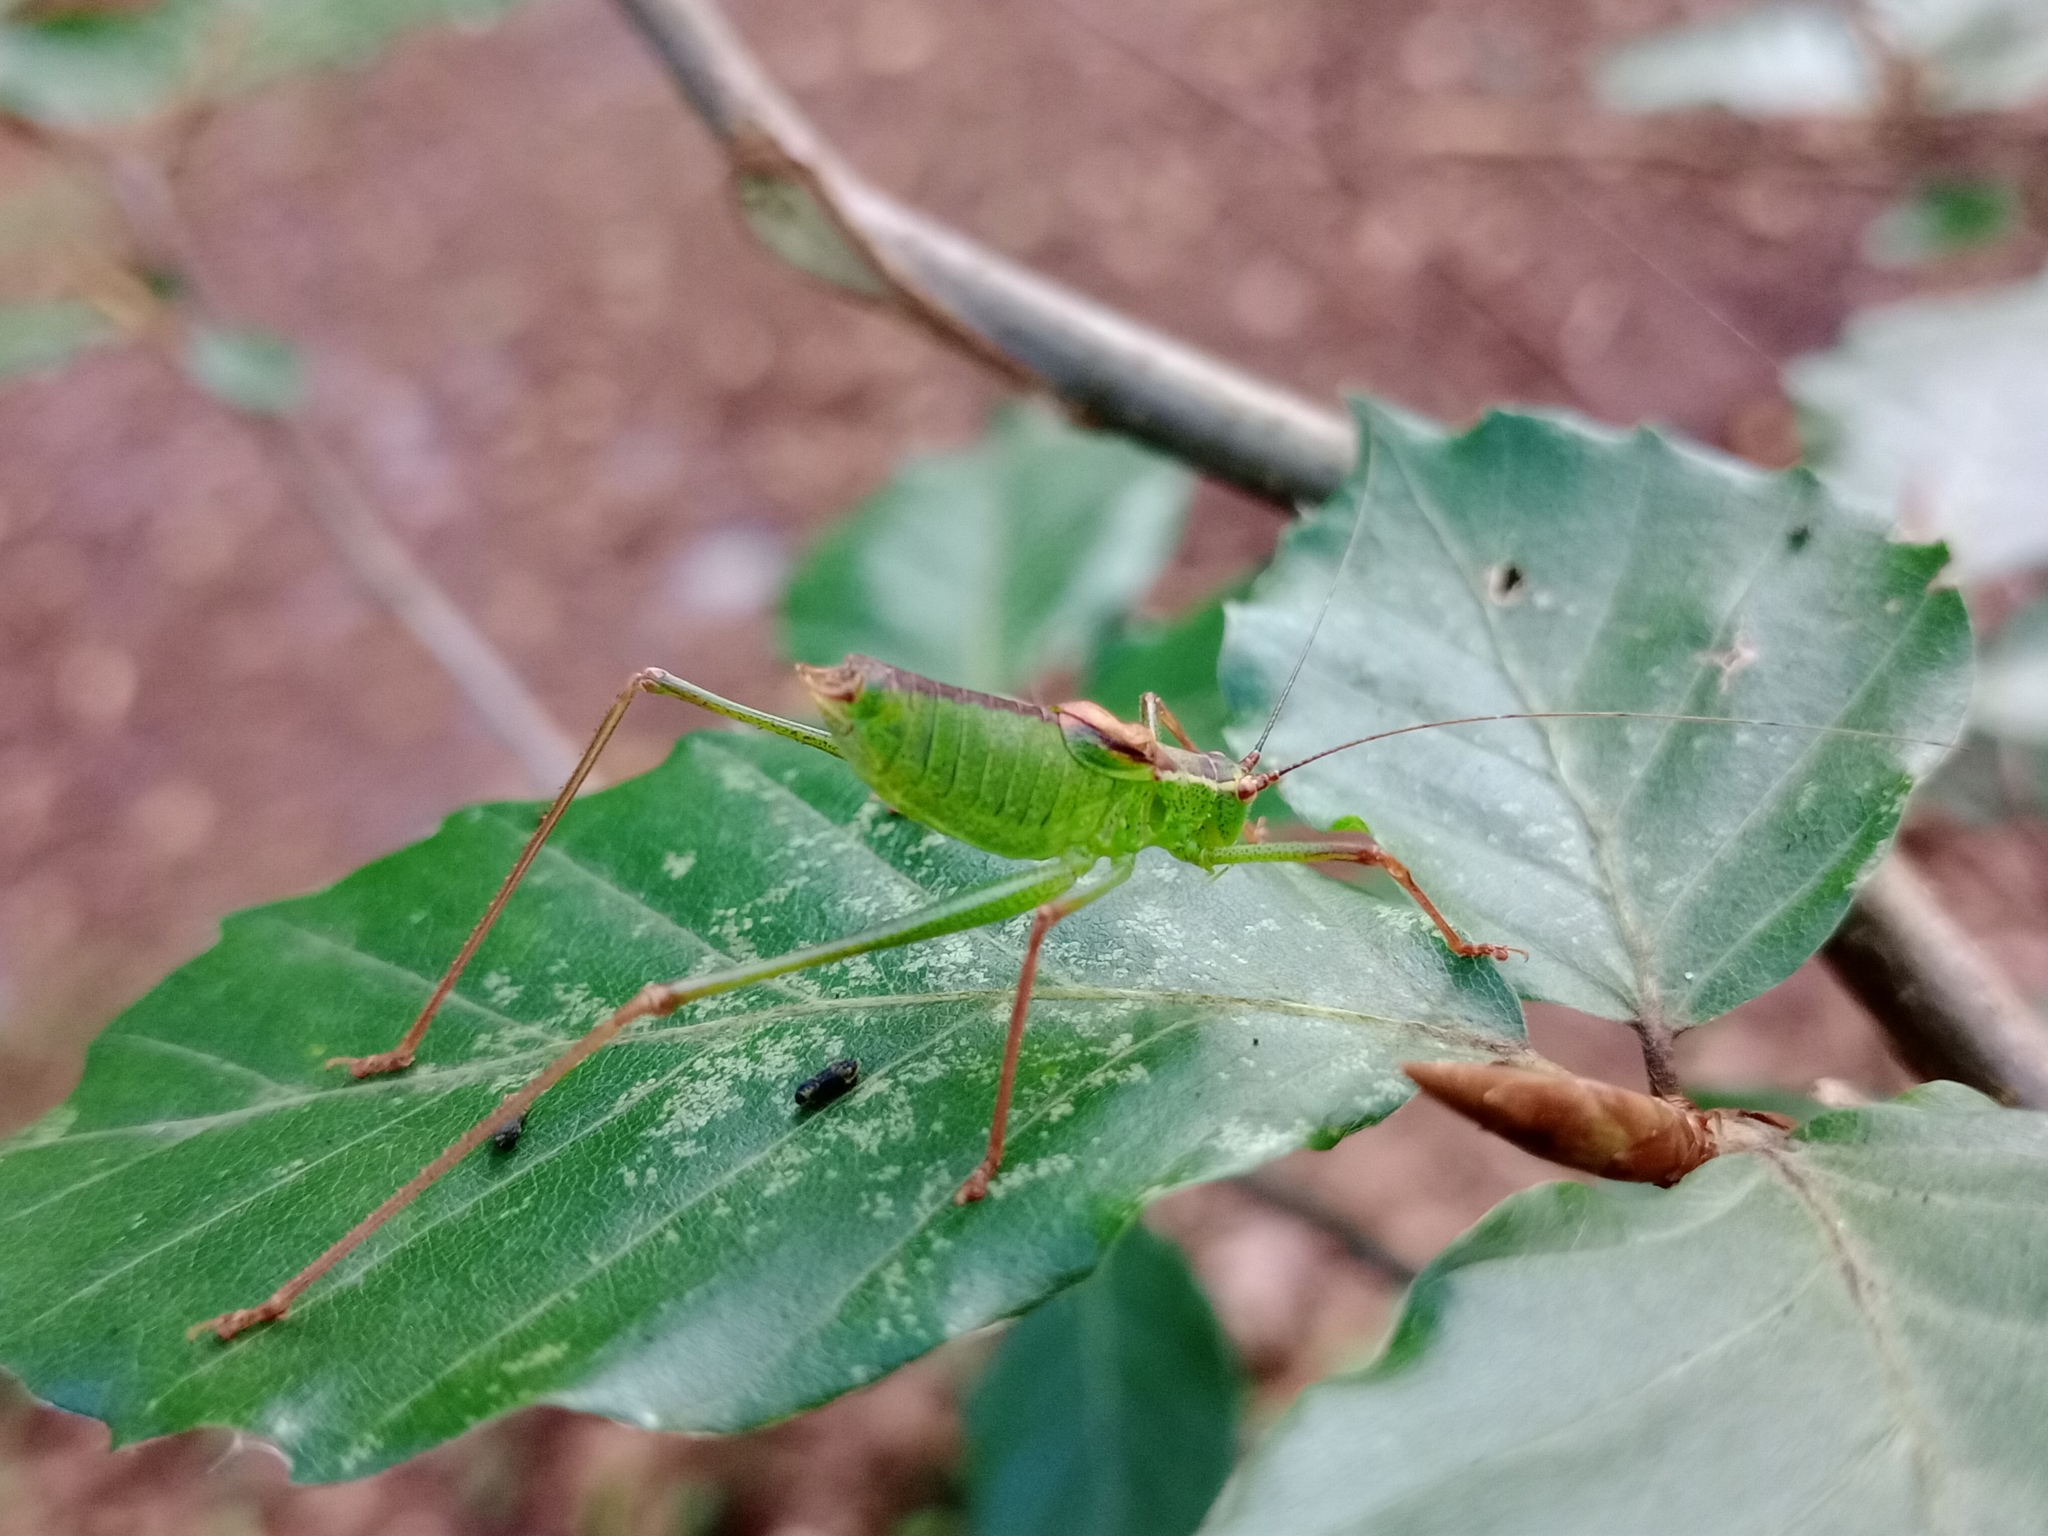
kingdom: Animalia
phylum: Arthropoda
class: Insecta
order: Orthoptera
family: Tettigoniidae
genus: Leptophyes
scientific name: Leptophyes punctatissima
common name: Speckled bush-cricket
